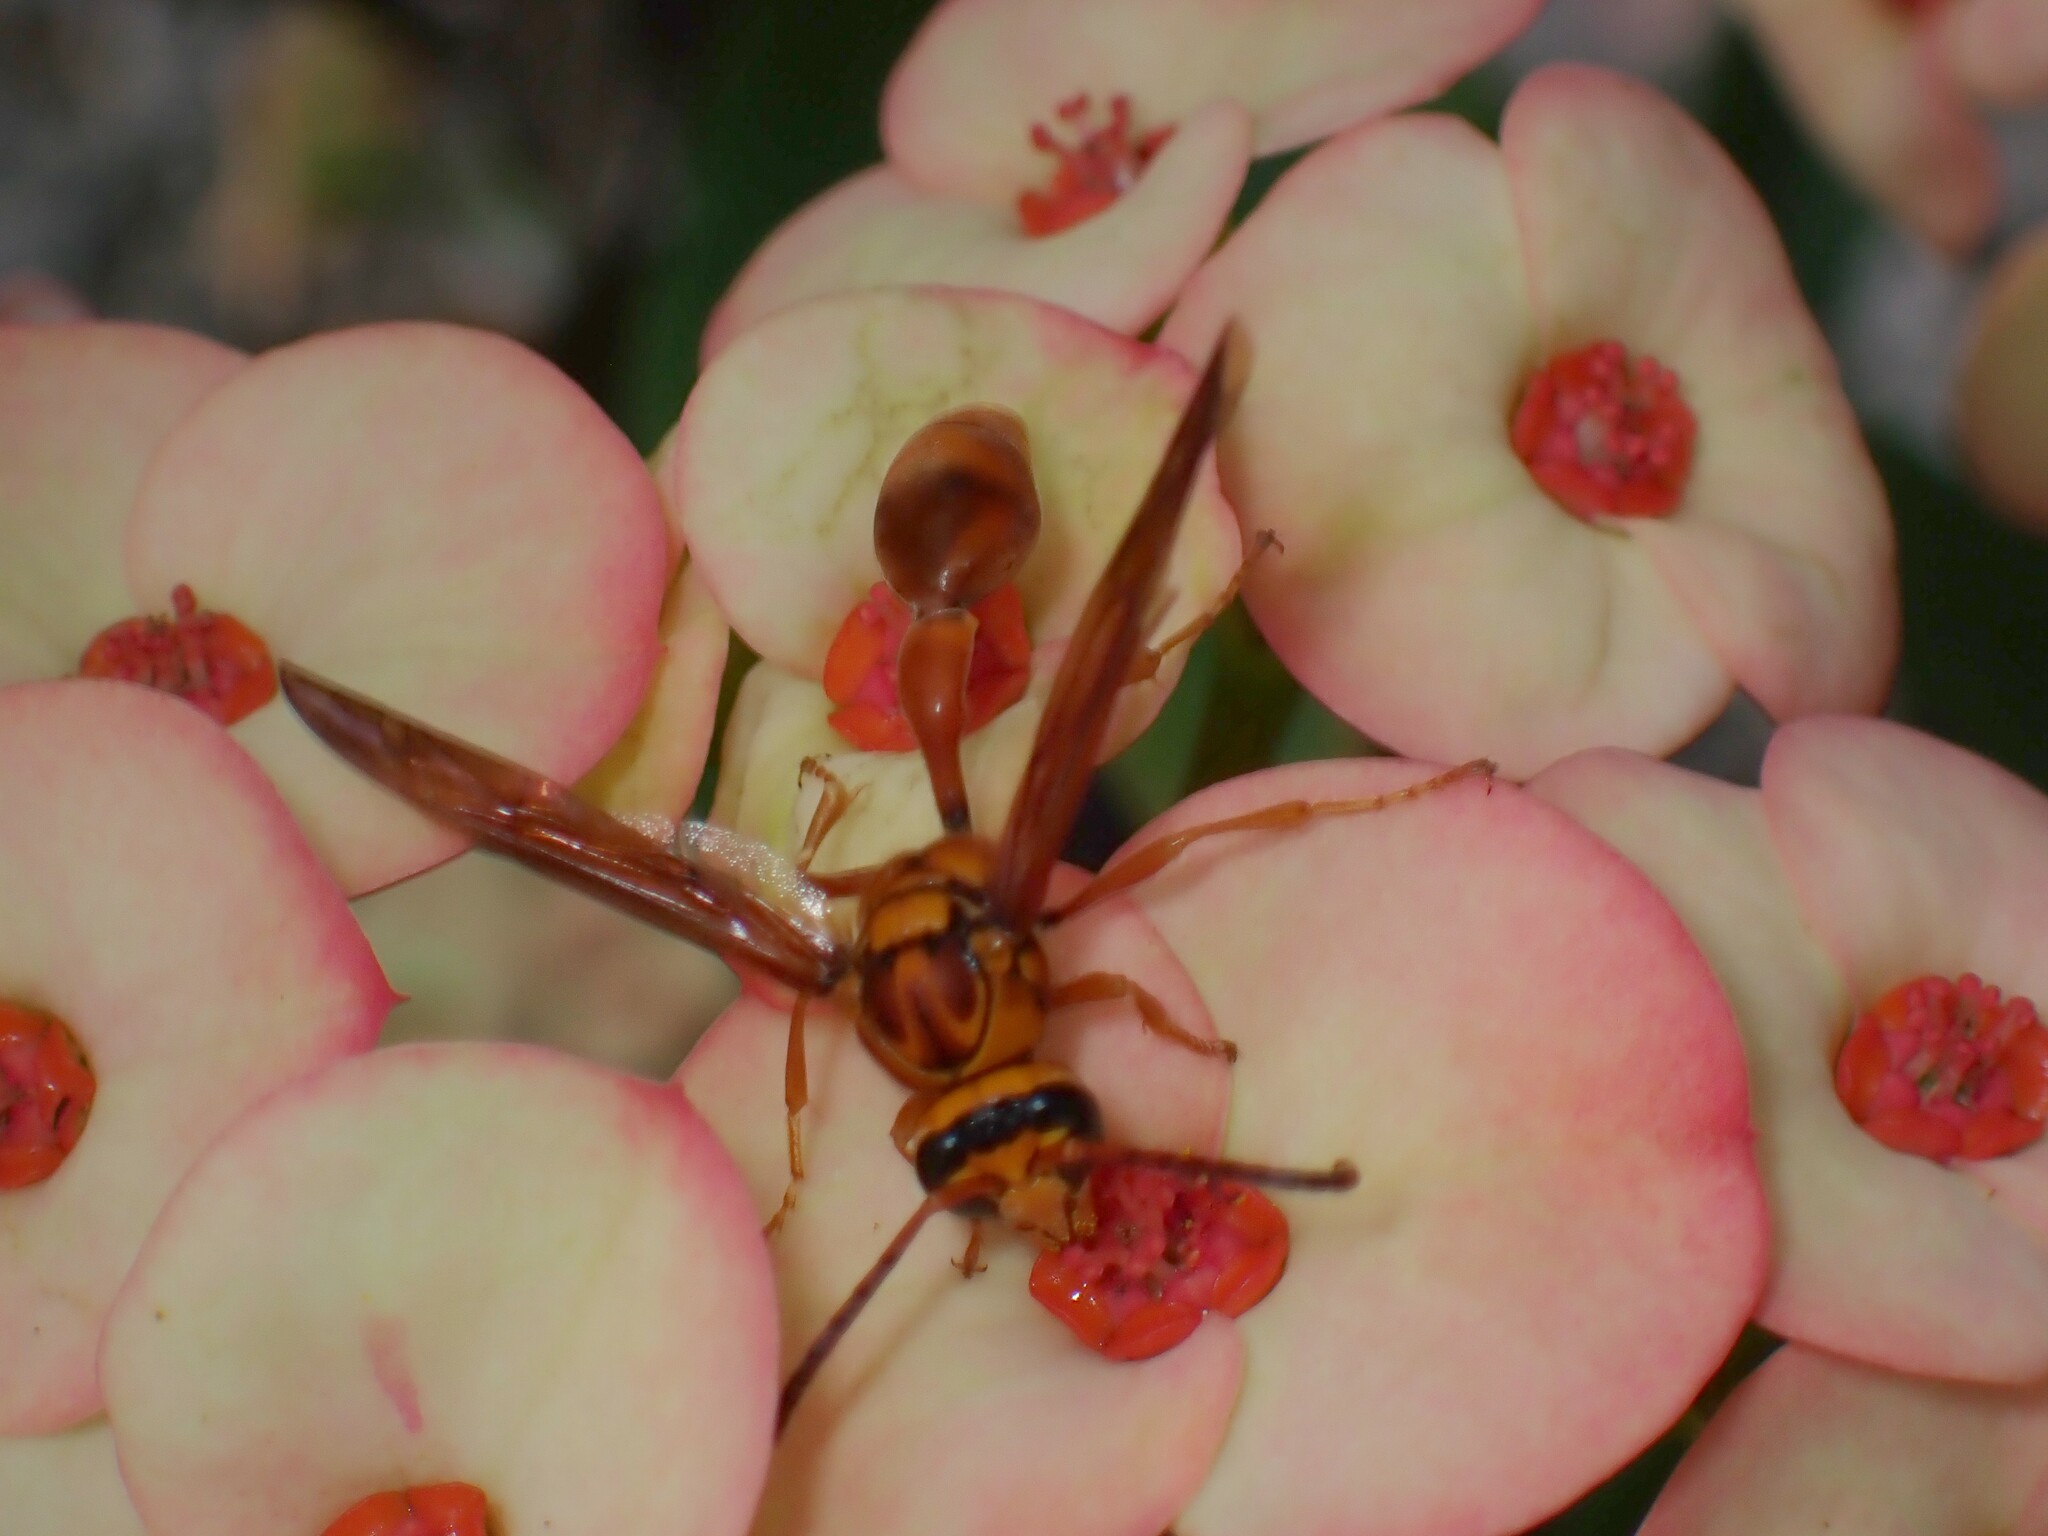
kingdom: Animalia
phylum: Arthropoda
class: Insecta
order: Hymenoptera
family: Eumenidae
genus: Delta
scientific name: Delta xanthurum
